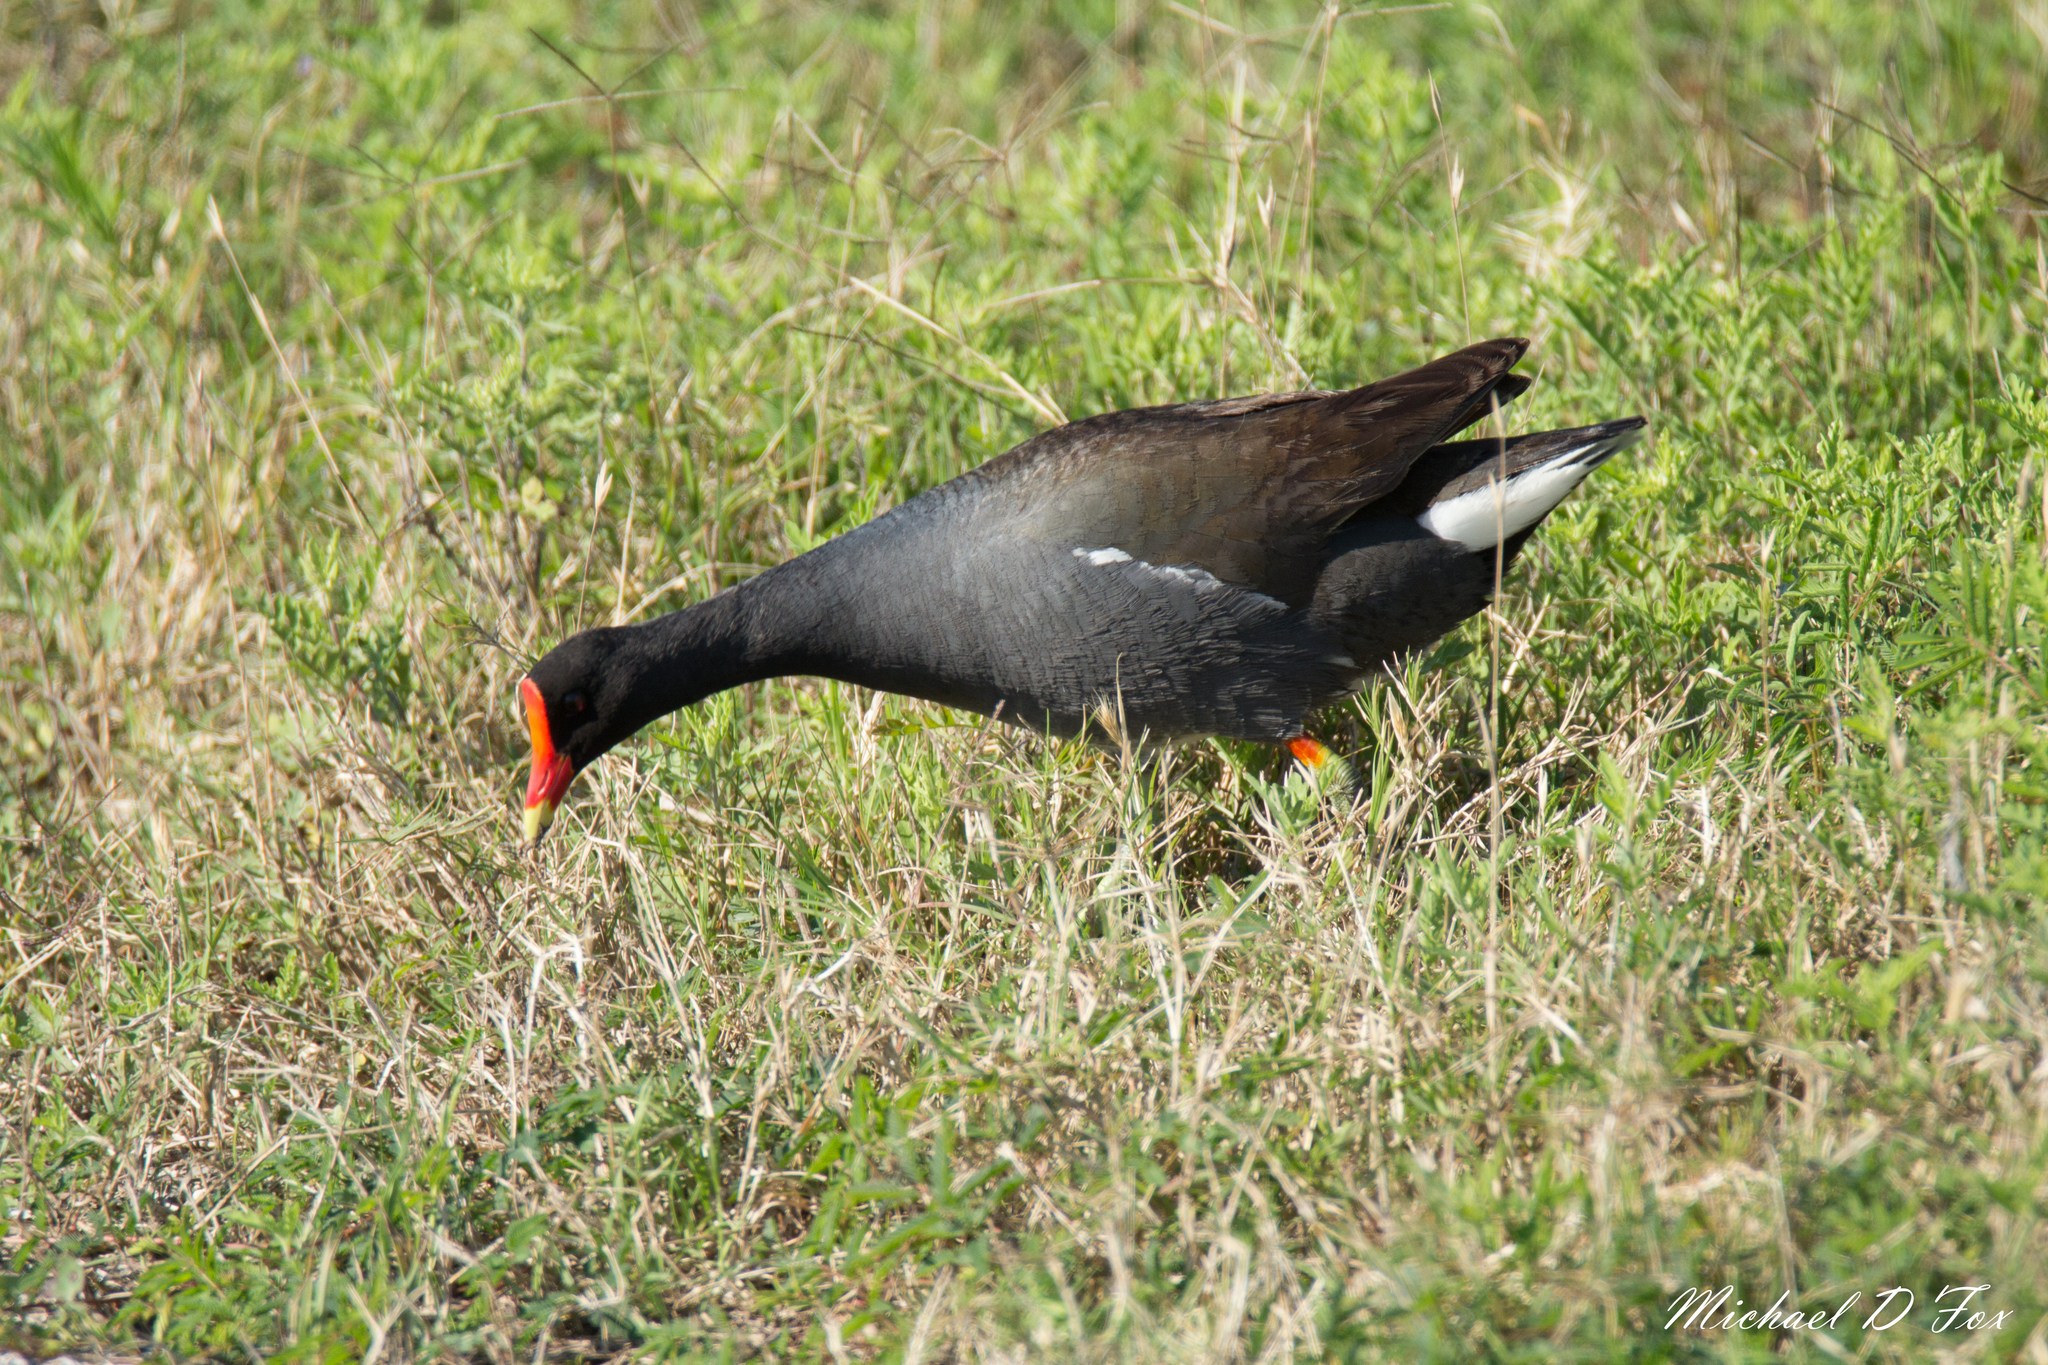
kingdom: Animalia
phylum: Chordata
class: Aves
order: Gruiformes
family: Rallidae
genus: Gallinula
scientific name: Gallinula chloropus
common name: Common moorhen
